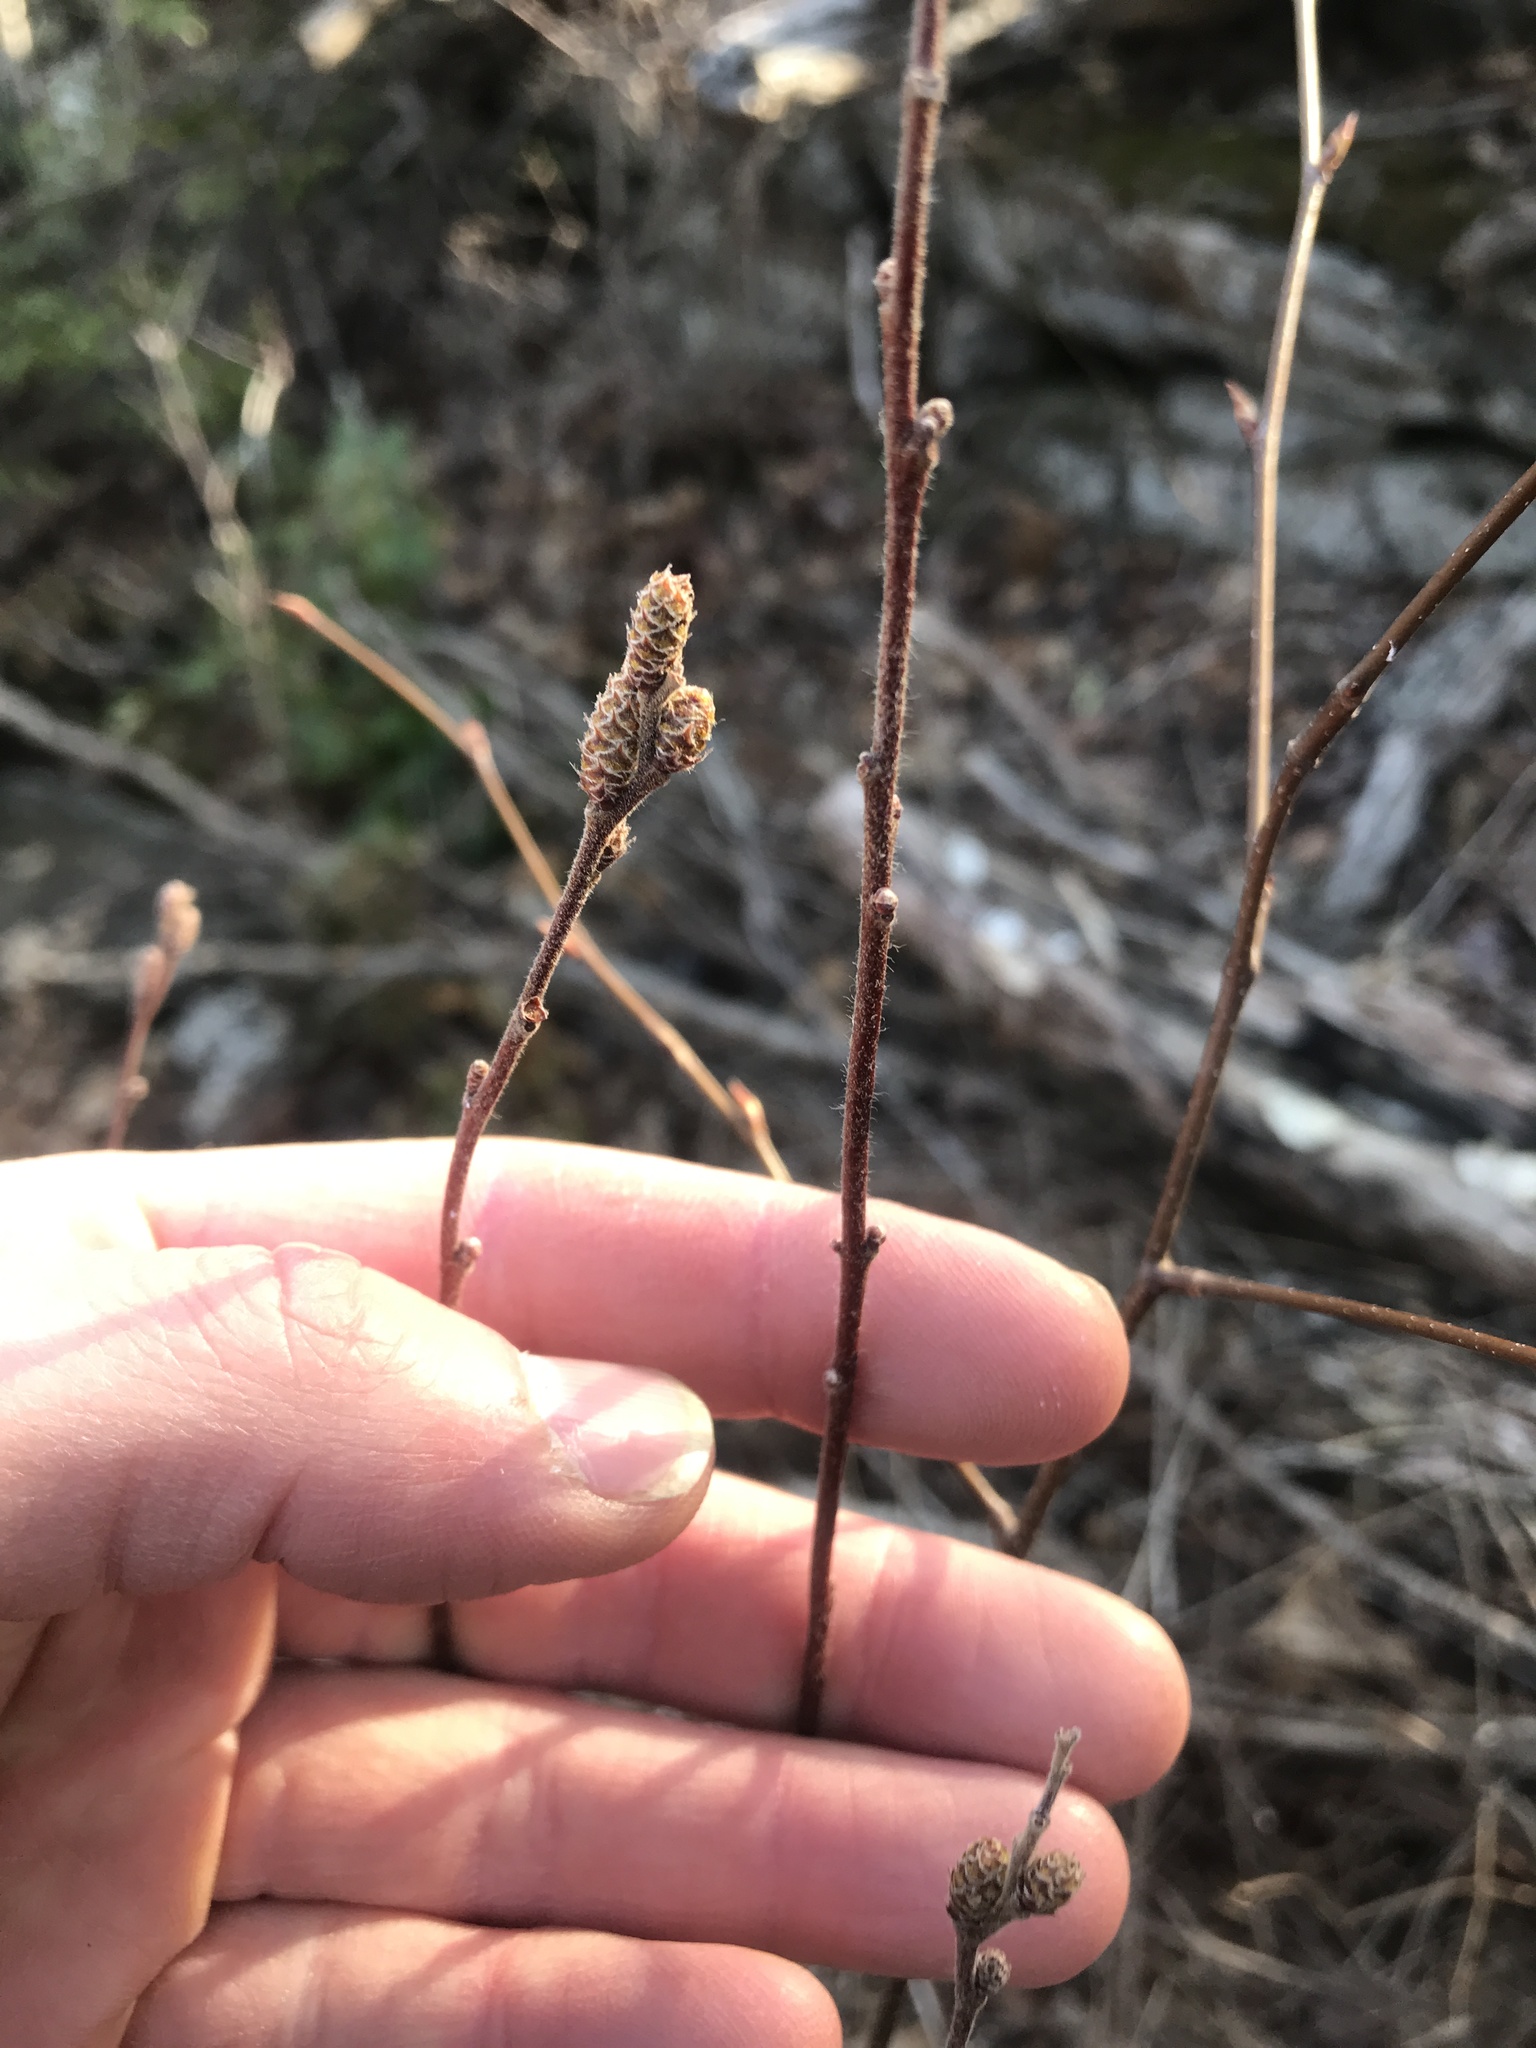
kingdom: Plantae
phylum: Tracheophyta
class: Magnoliopsida
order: Fagales
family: Myricaceae
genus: Comptonia
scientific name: Comptonia peregrina
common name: Sweet-fern
